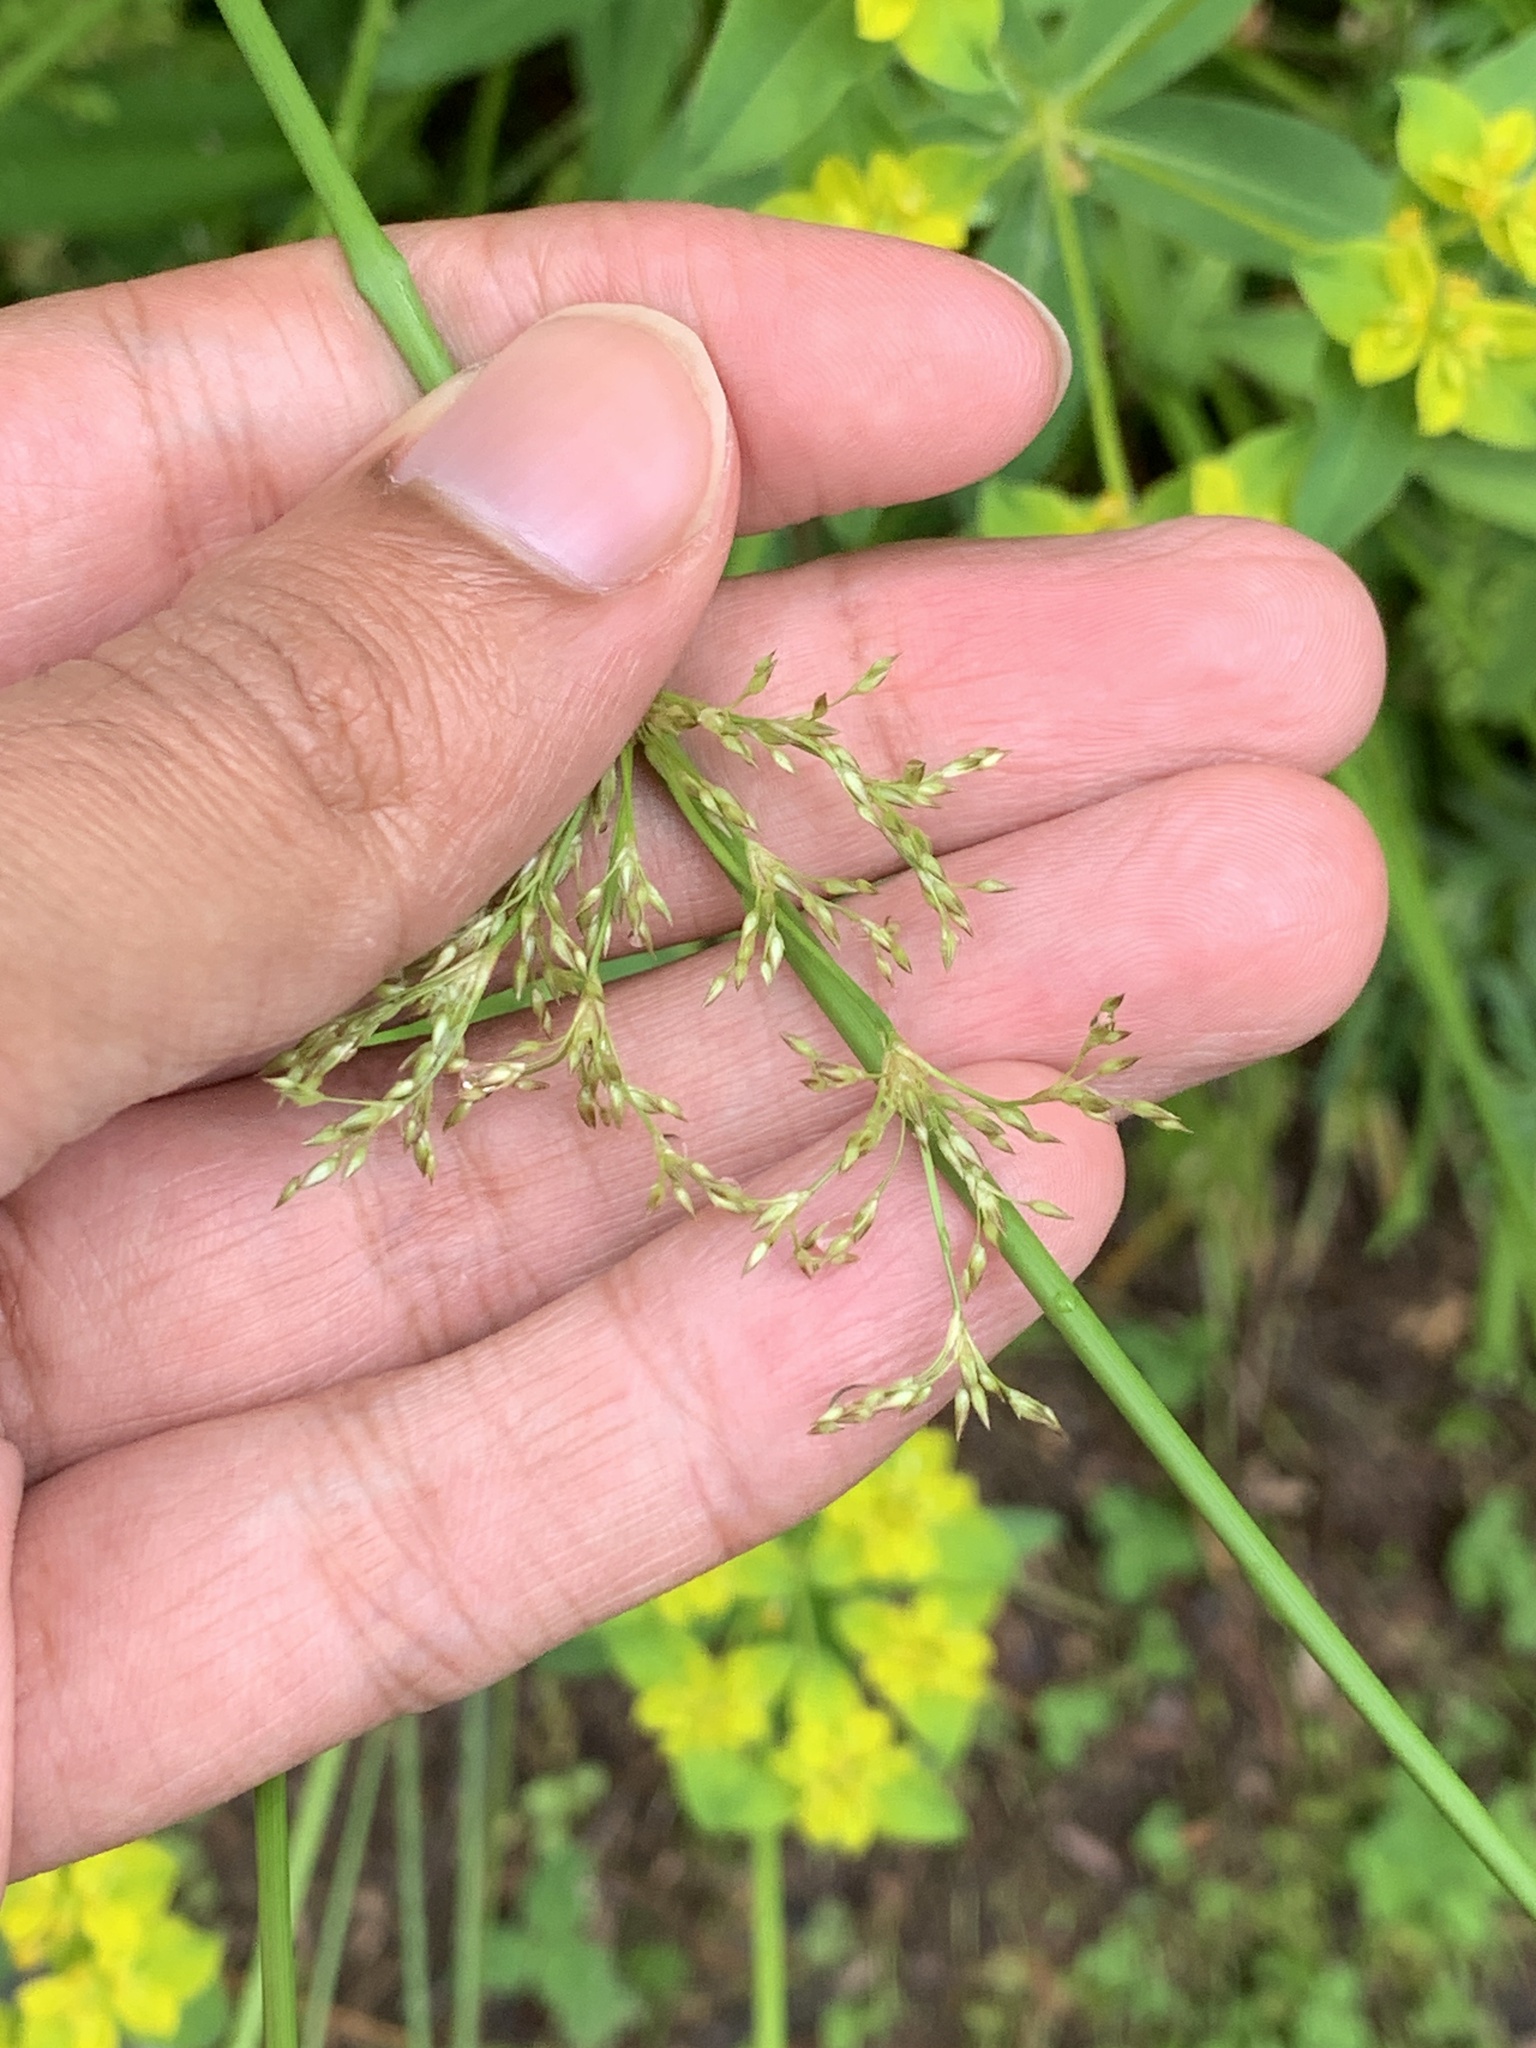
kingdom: Plantae
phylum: Tracheophyta
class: Liliopsida
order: Poales
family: Juncaceae
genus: Juncus
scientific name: Juncus effusus
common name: Soft rush
